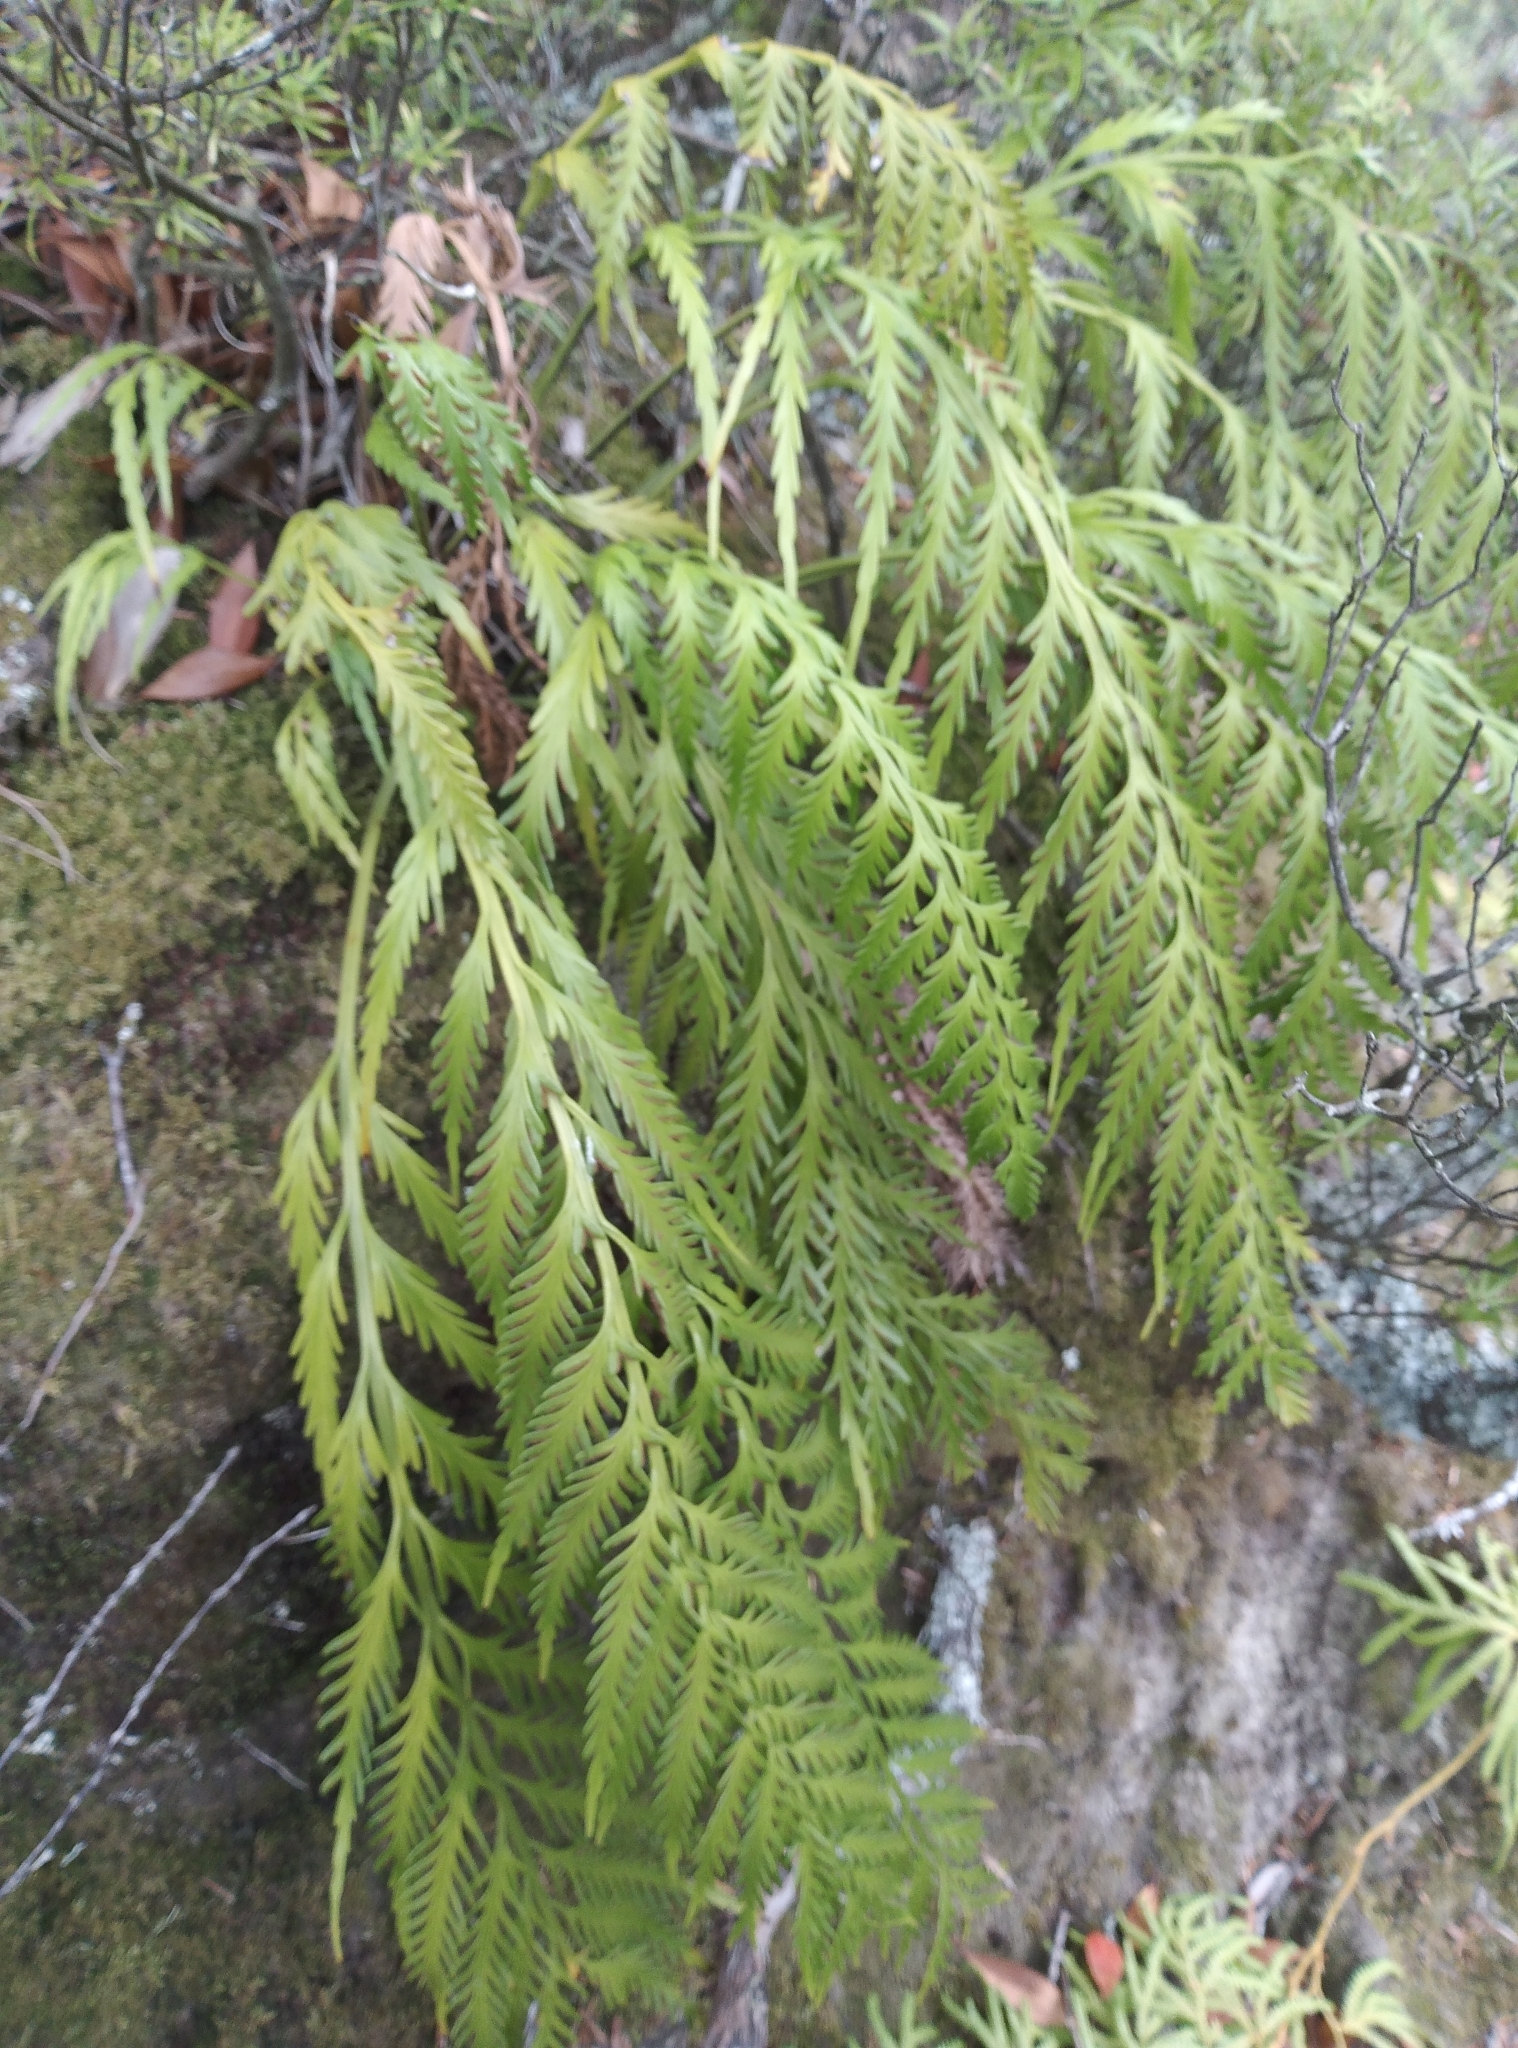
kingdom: Plantae
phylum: Tracheophyta
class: Polypodiopsida
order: Polypodiales
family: Aspleniaceae
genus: Asplenium
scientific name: Asplenium flaccidum
